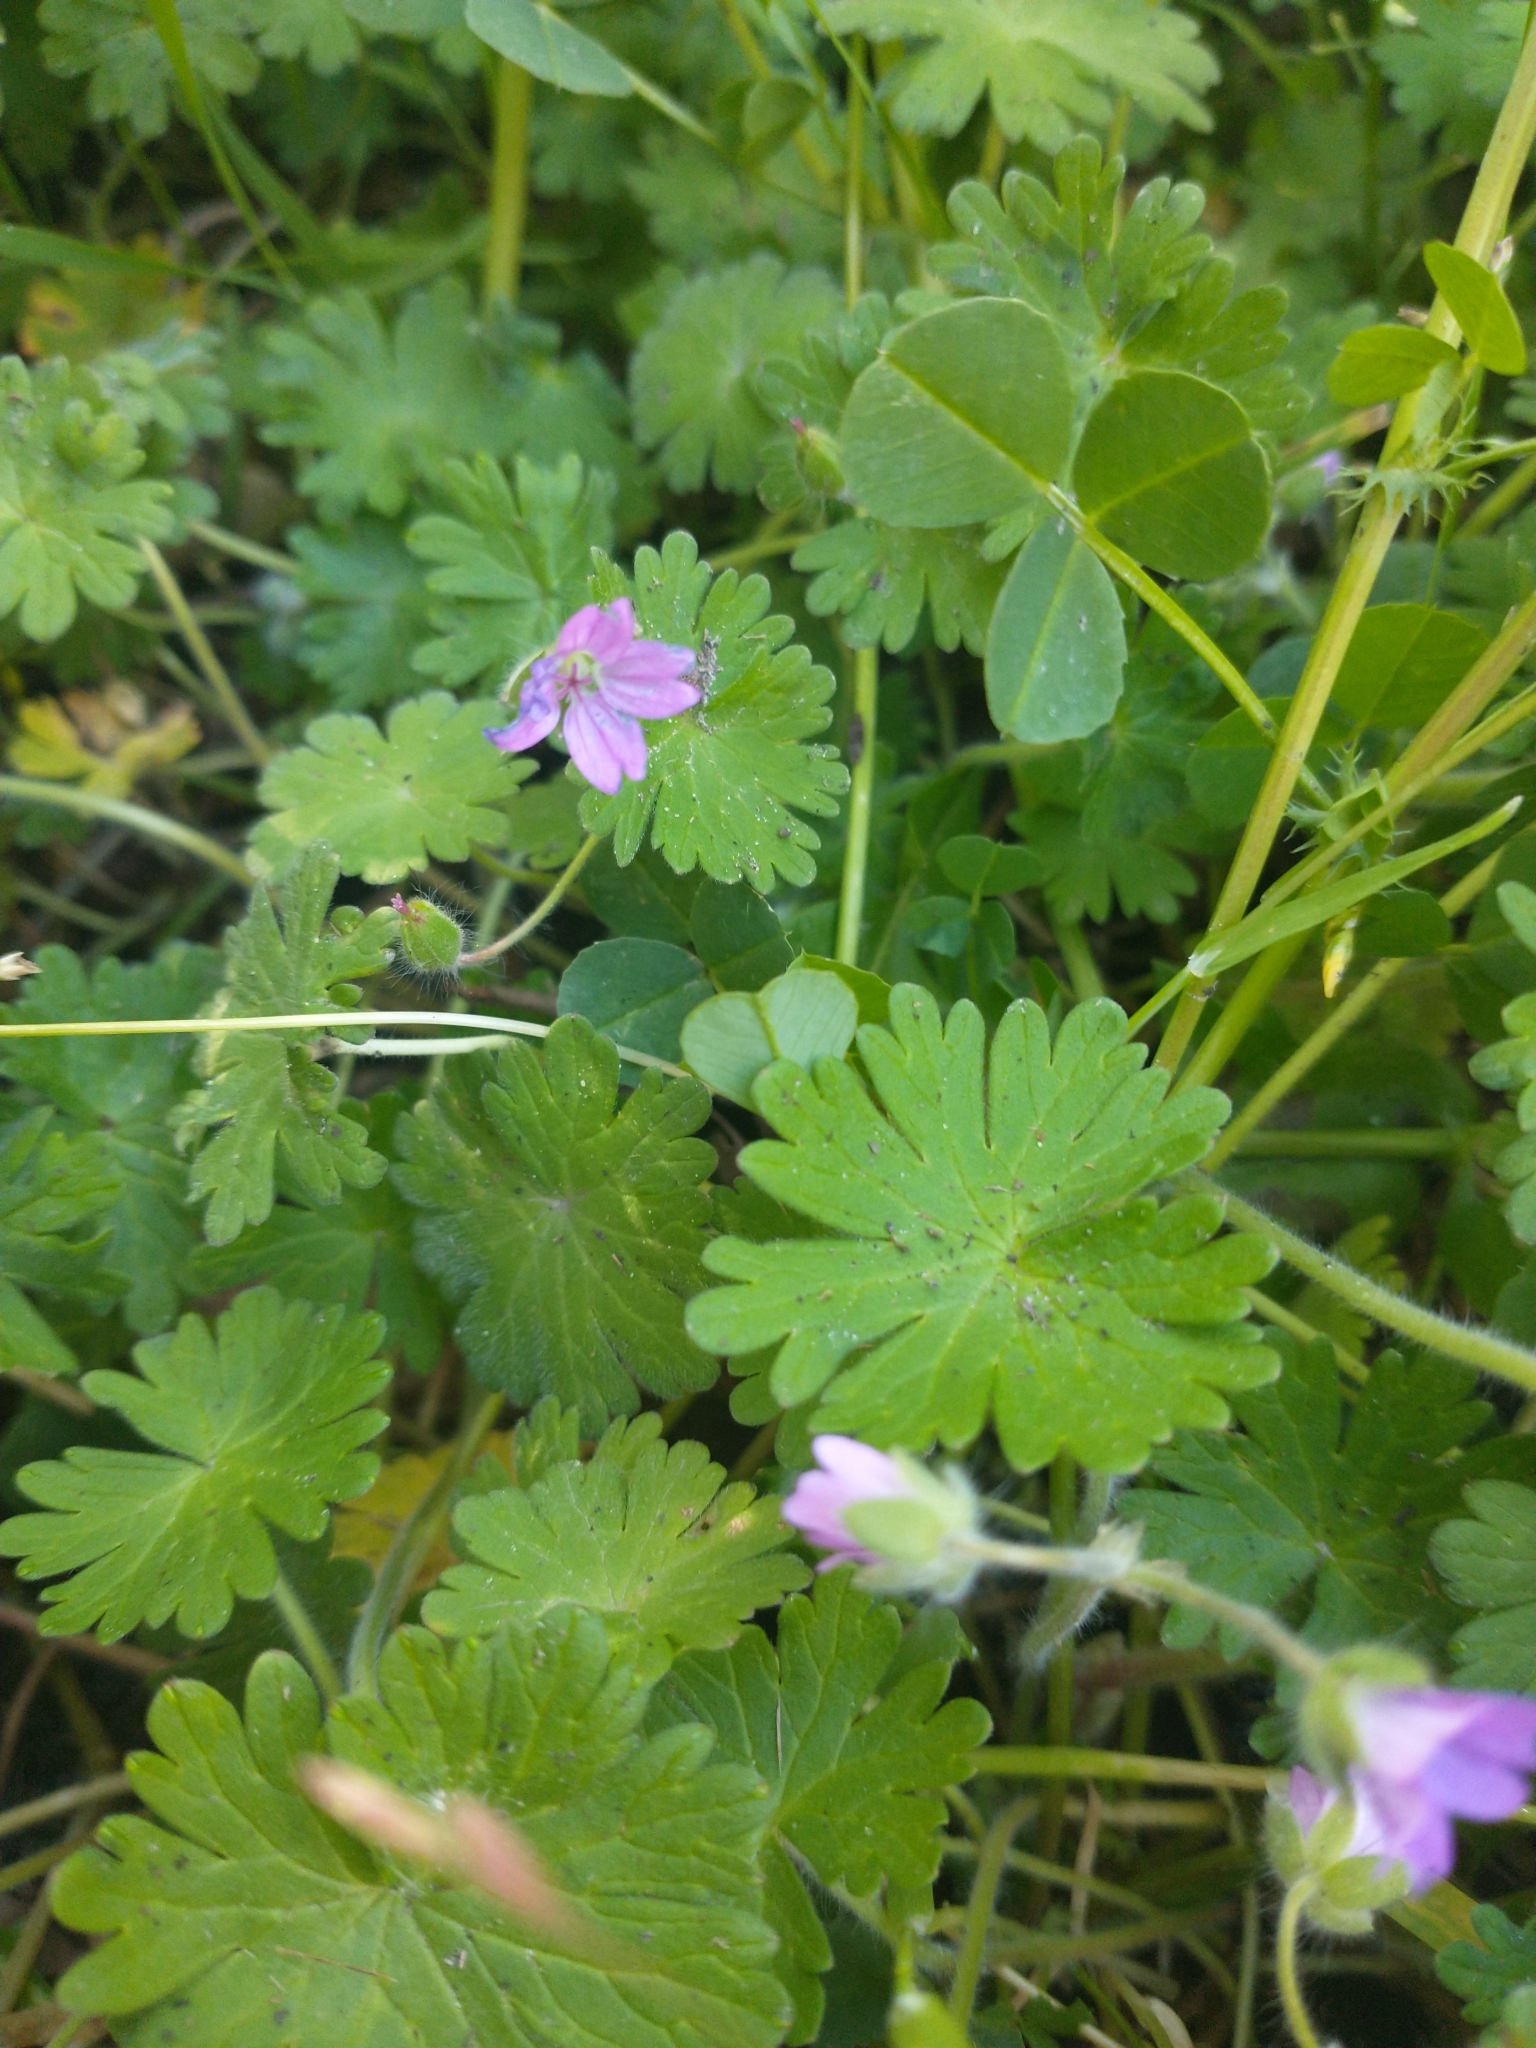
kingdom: Plantae
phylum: Tracheophyta
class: Magnoliopsida
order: Geraniales
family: Geraniaceae
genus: Geranium
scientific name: Geranium molle
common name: Dove's-foot crane's-bill
